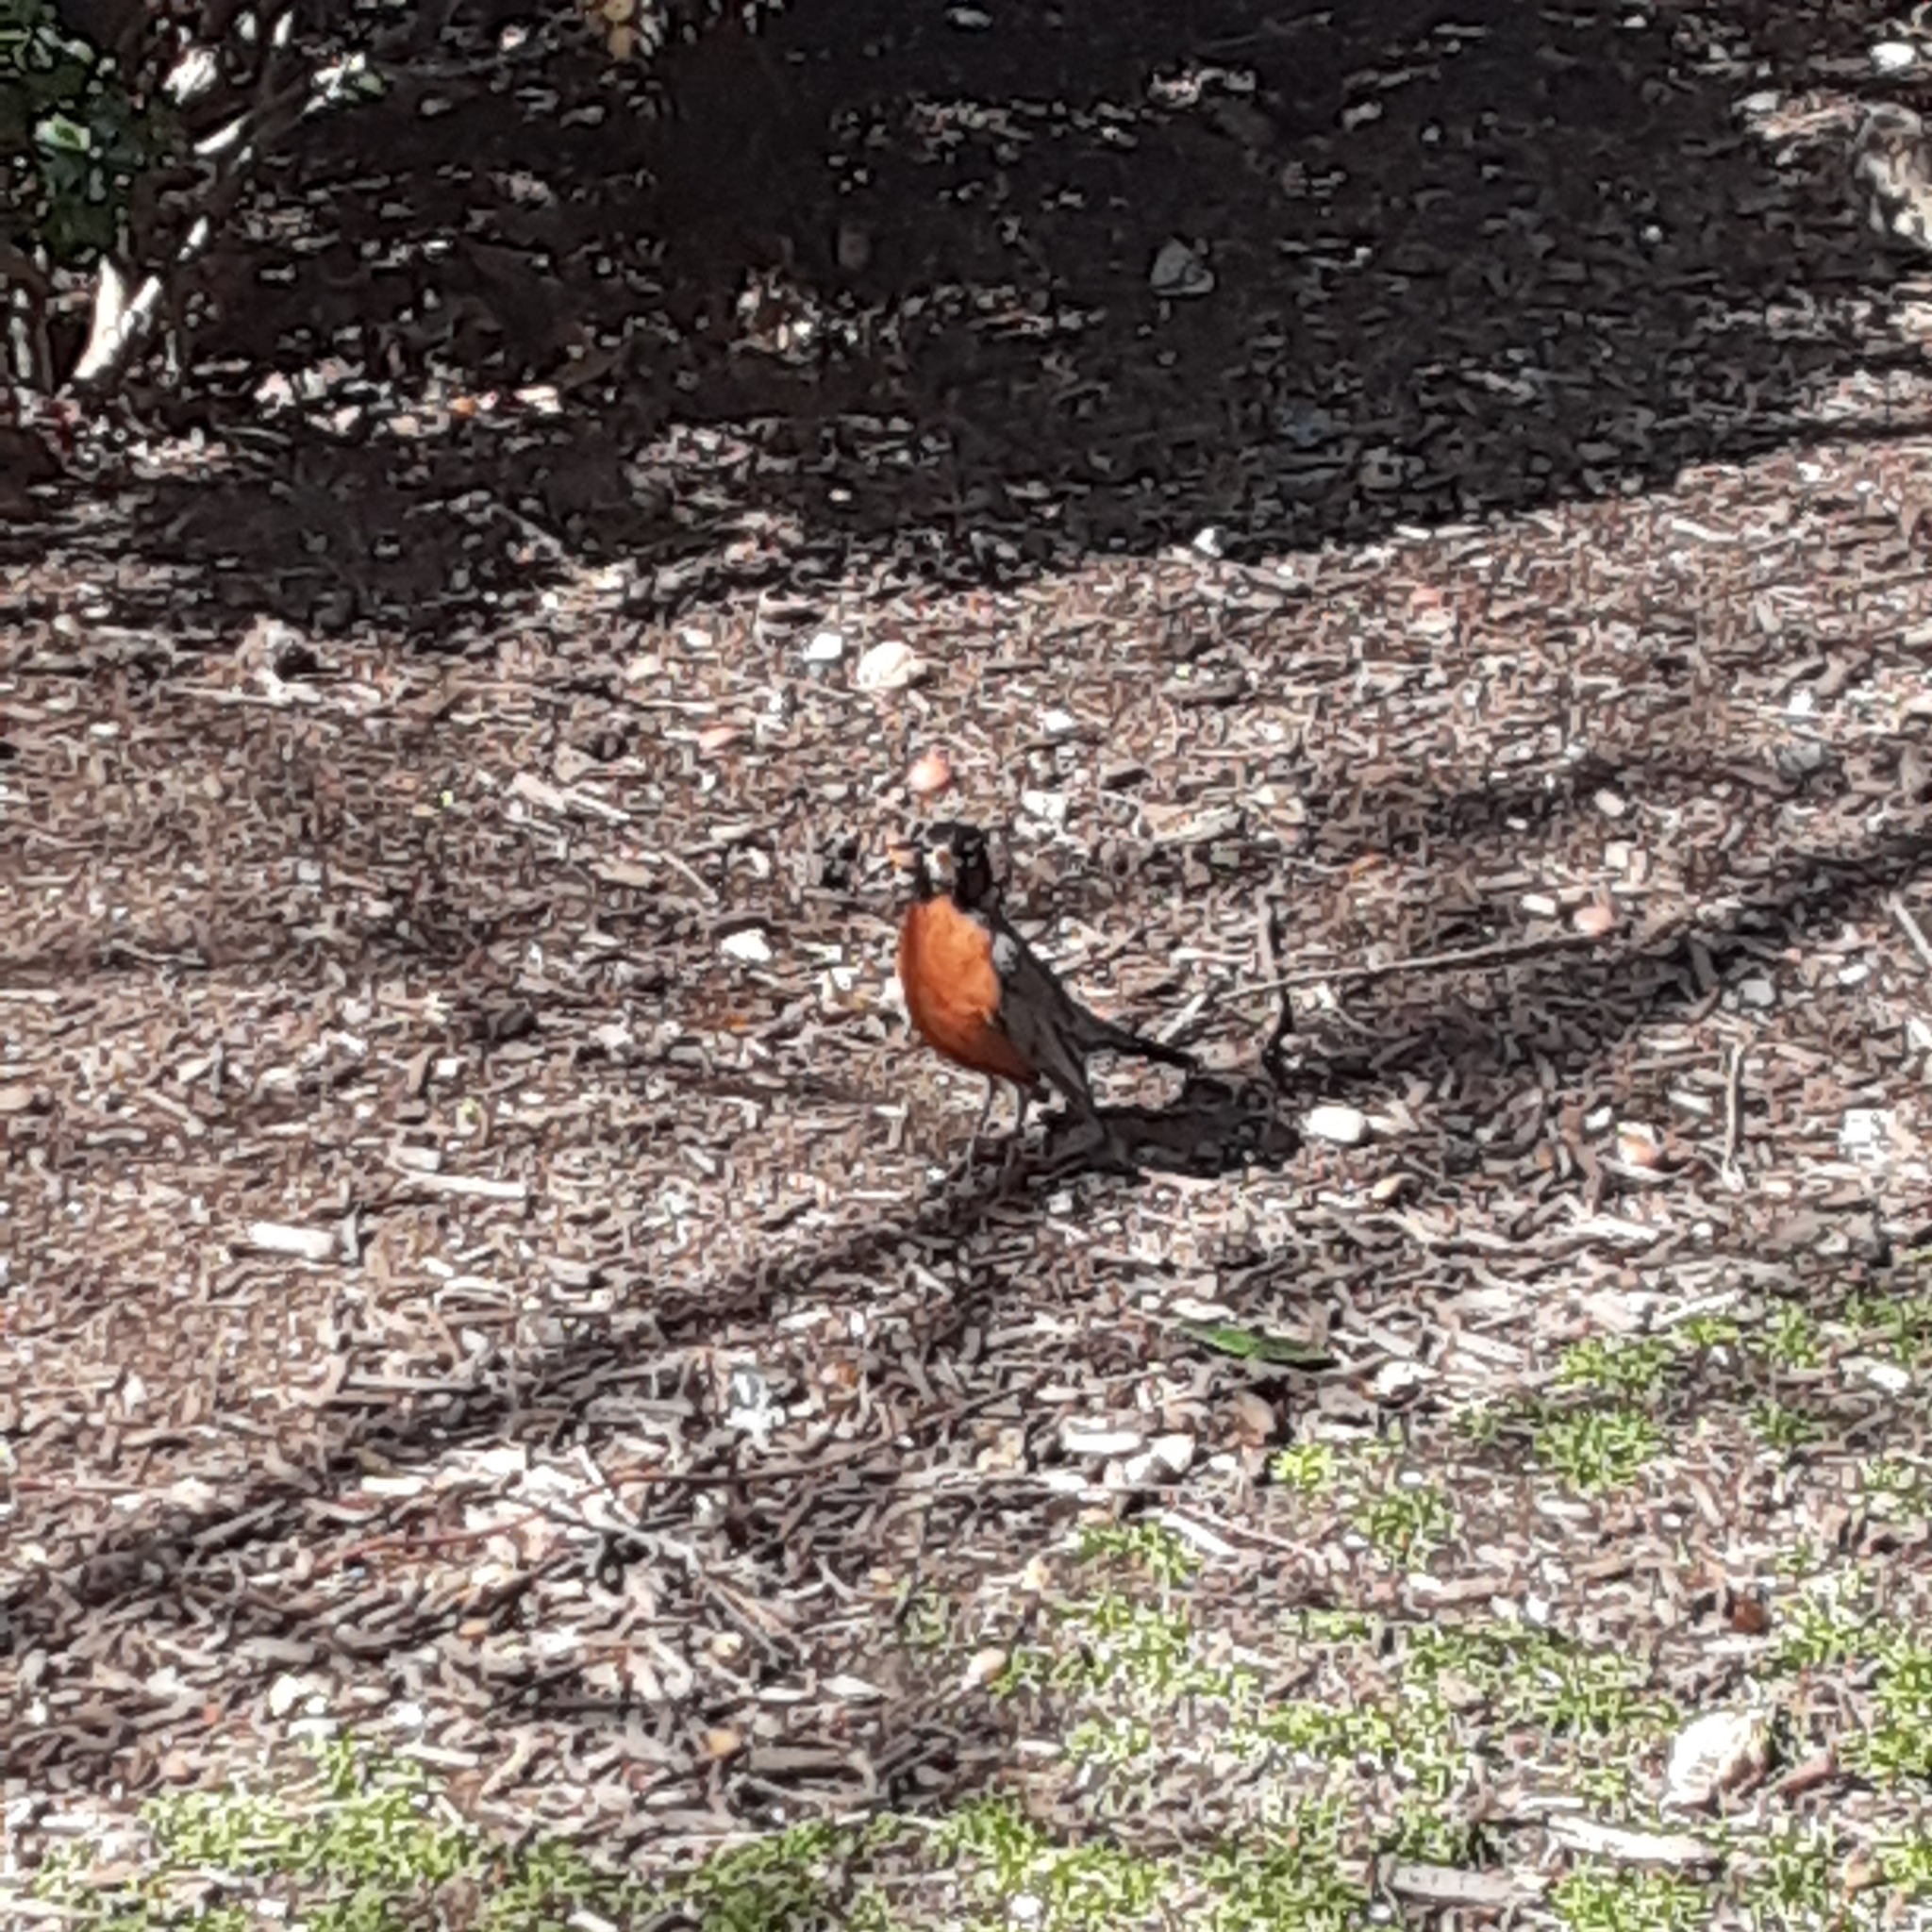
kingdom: Animalia
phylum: Chordata
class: Aves
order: Passeriformes
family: Turdidae
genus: Turdus
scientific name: Turdus migratorius
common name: American robin
